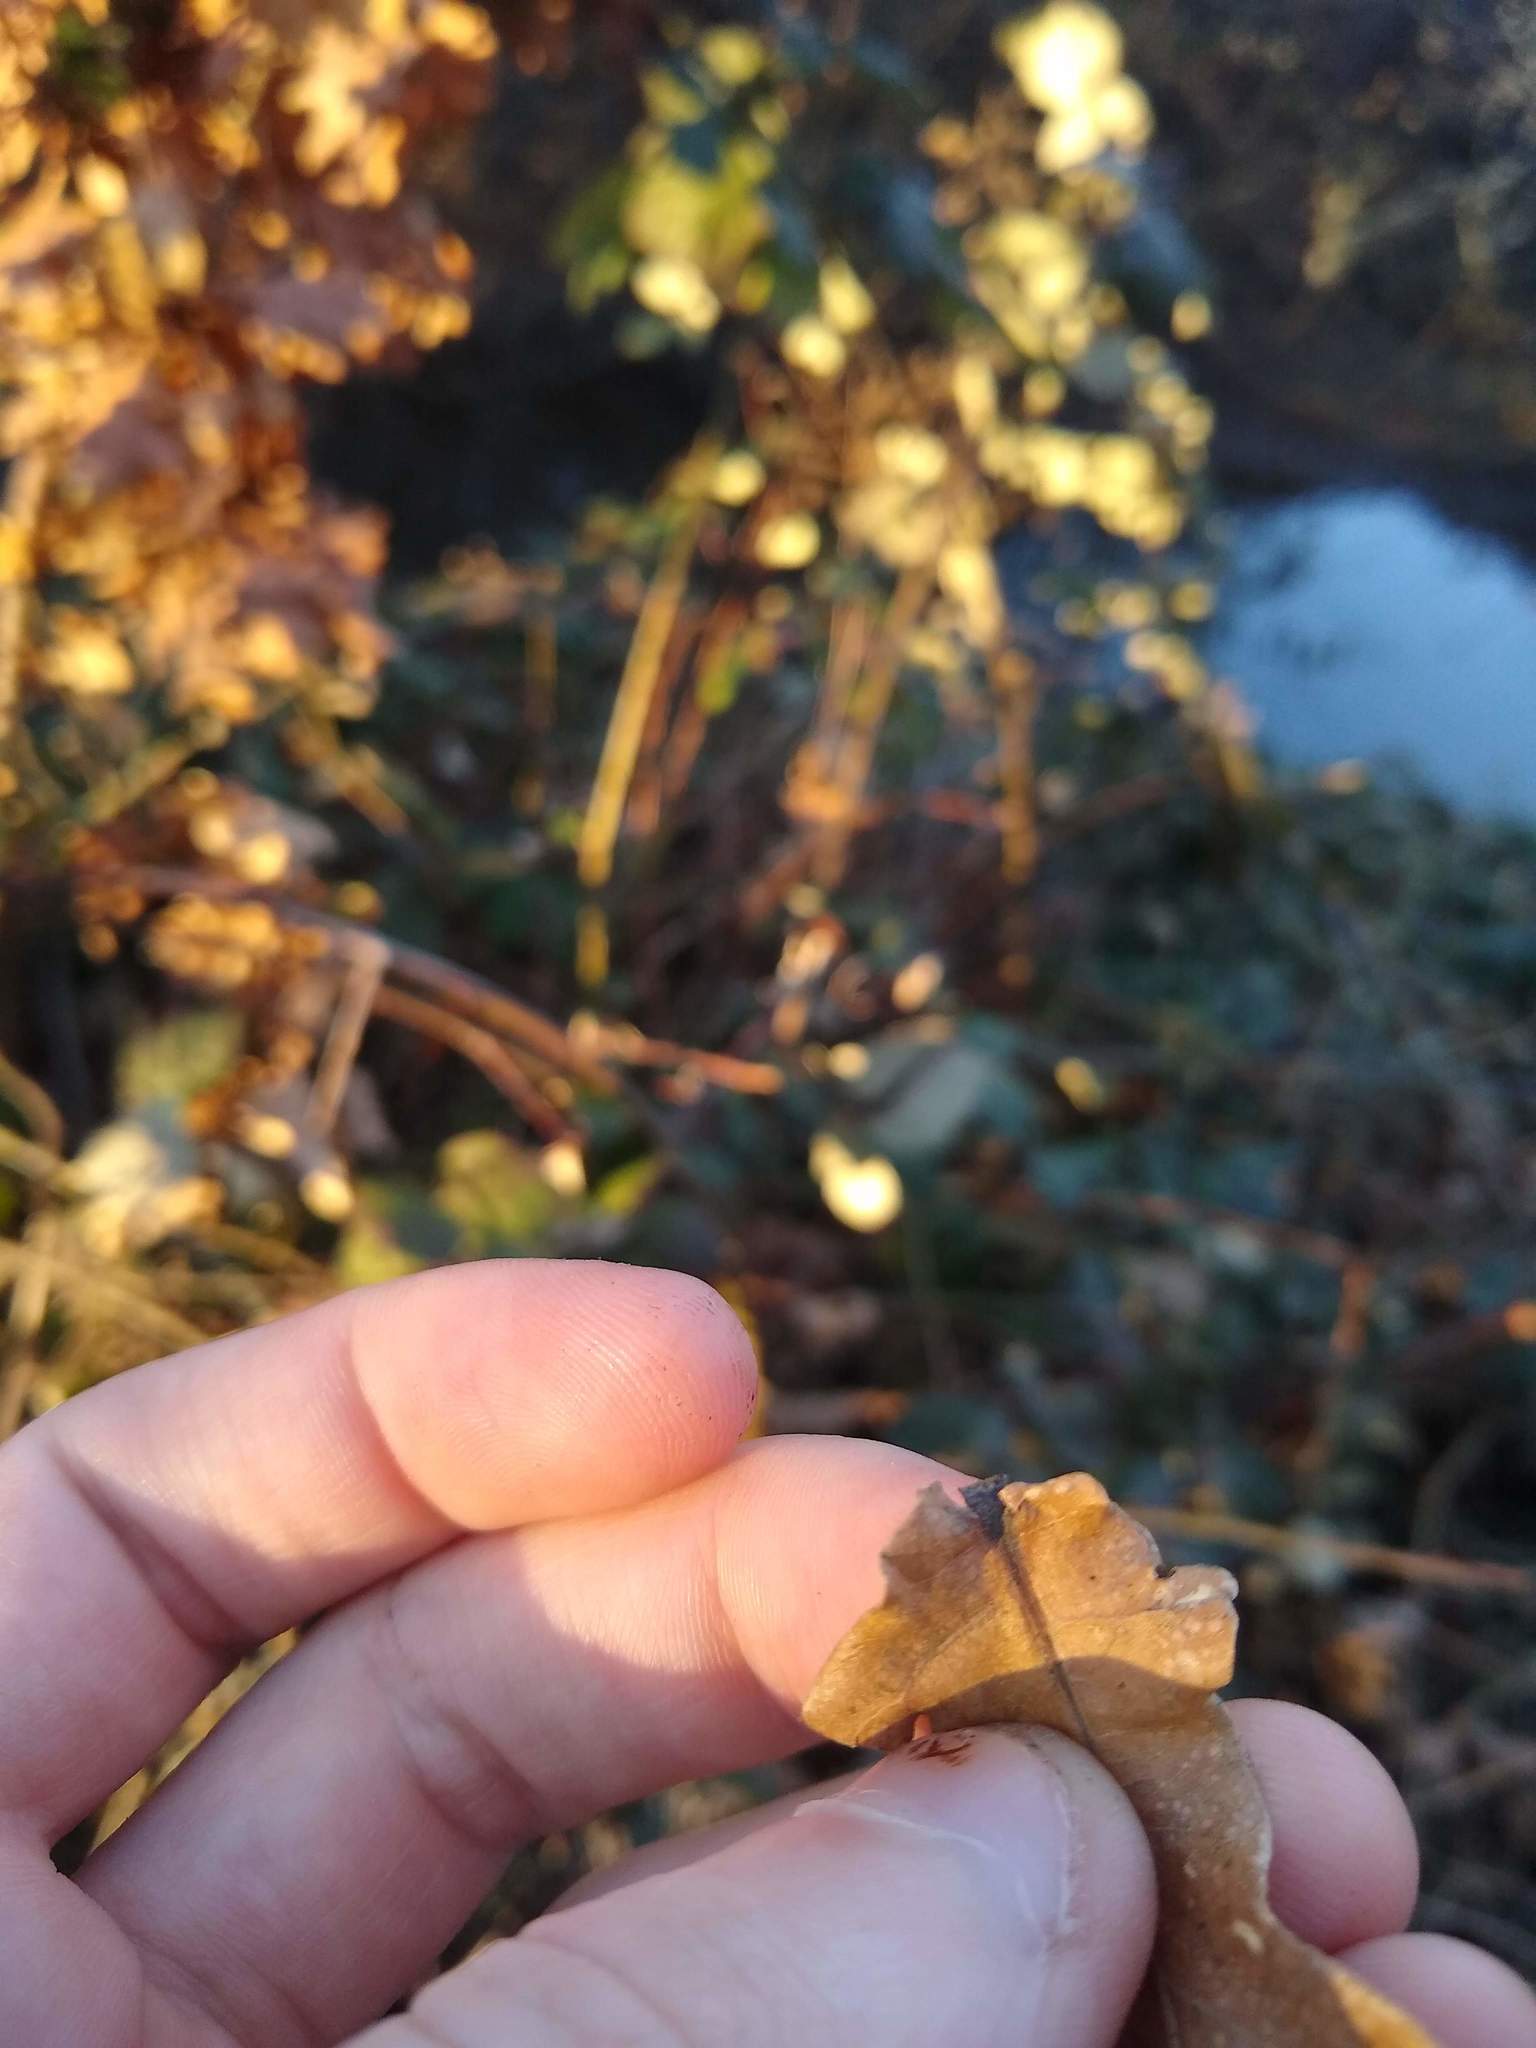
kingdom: Plantae
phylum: Tracheophyta
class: Magnoliopsida
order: Fagales
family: Fagaceae
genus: Quercus
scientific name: Quercus robur
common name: Pedunculate oak
